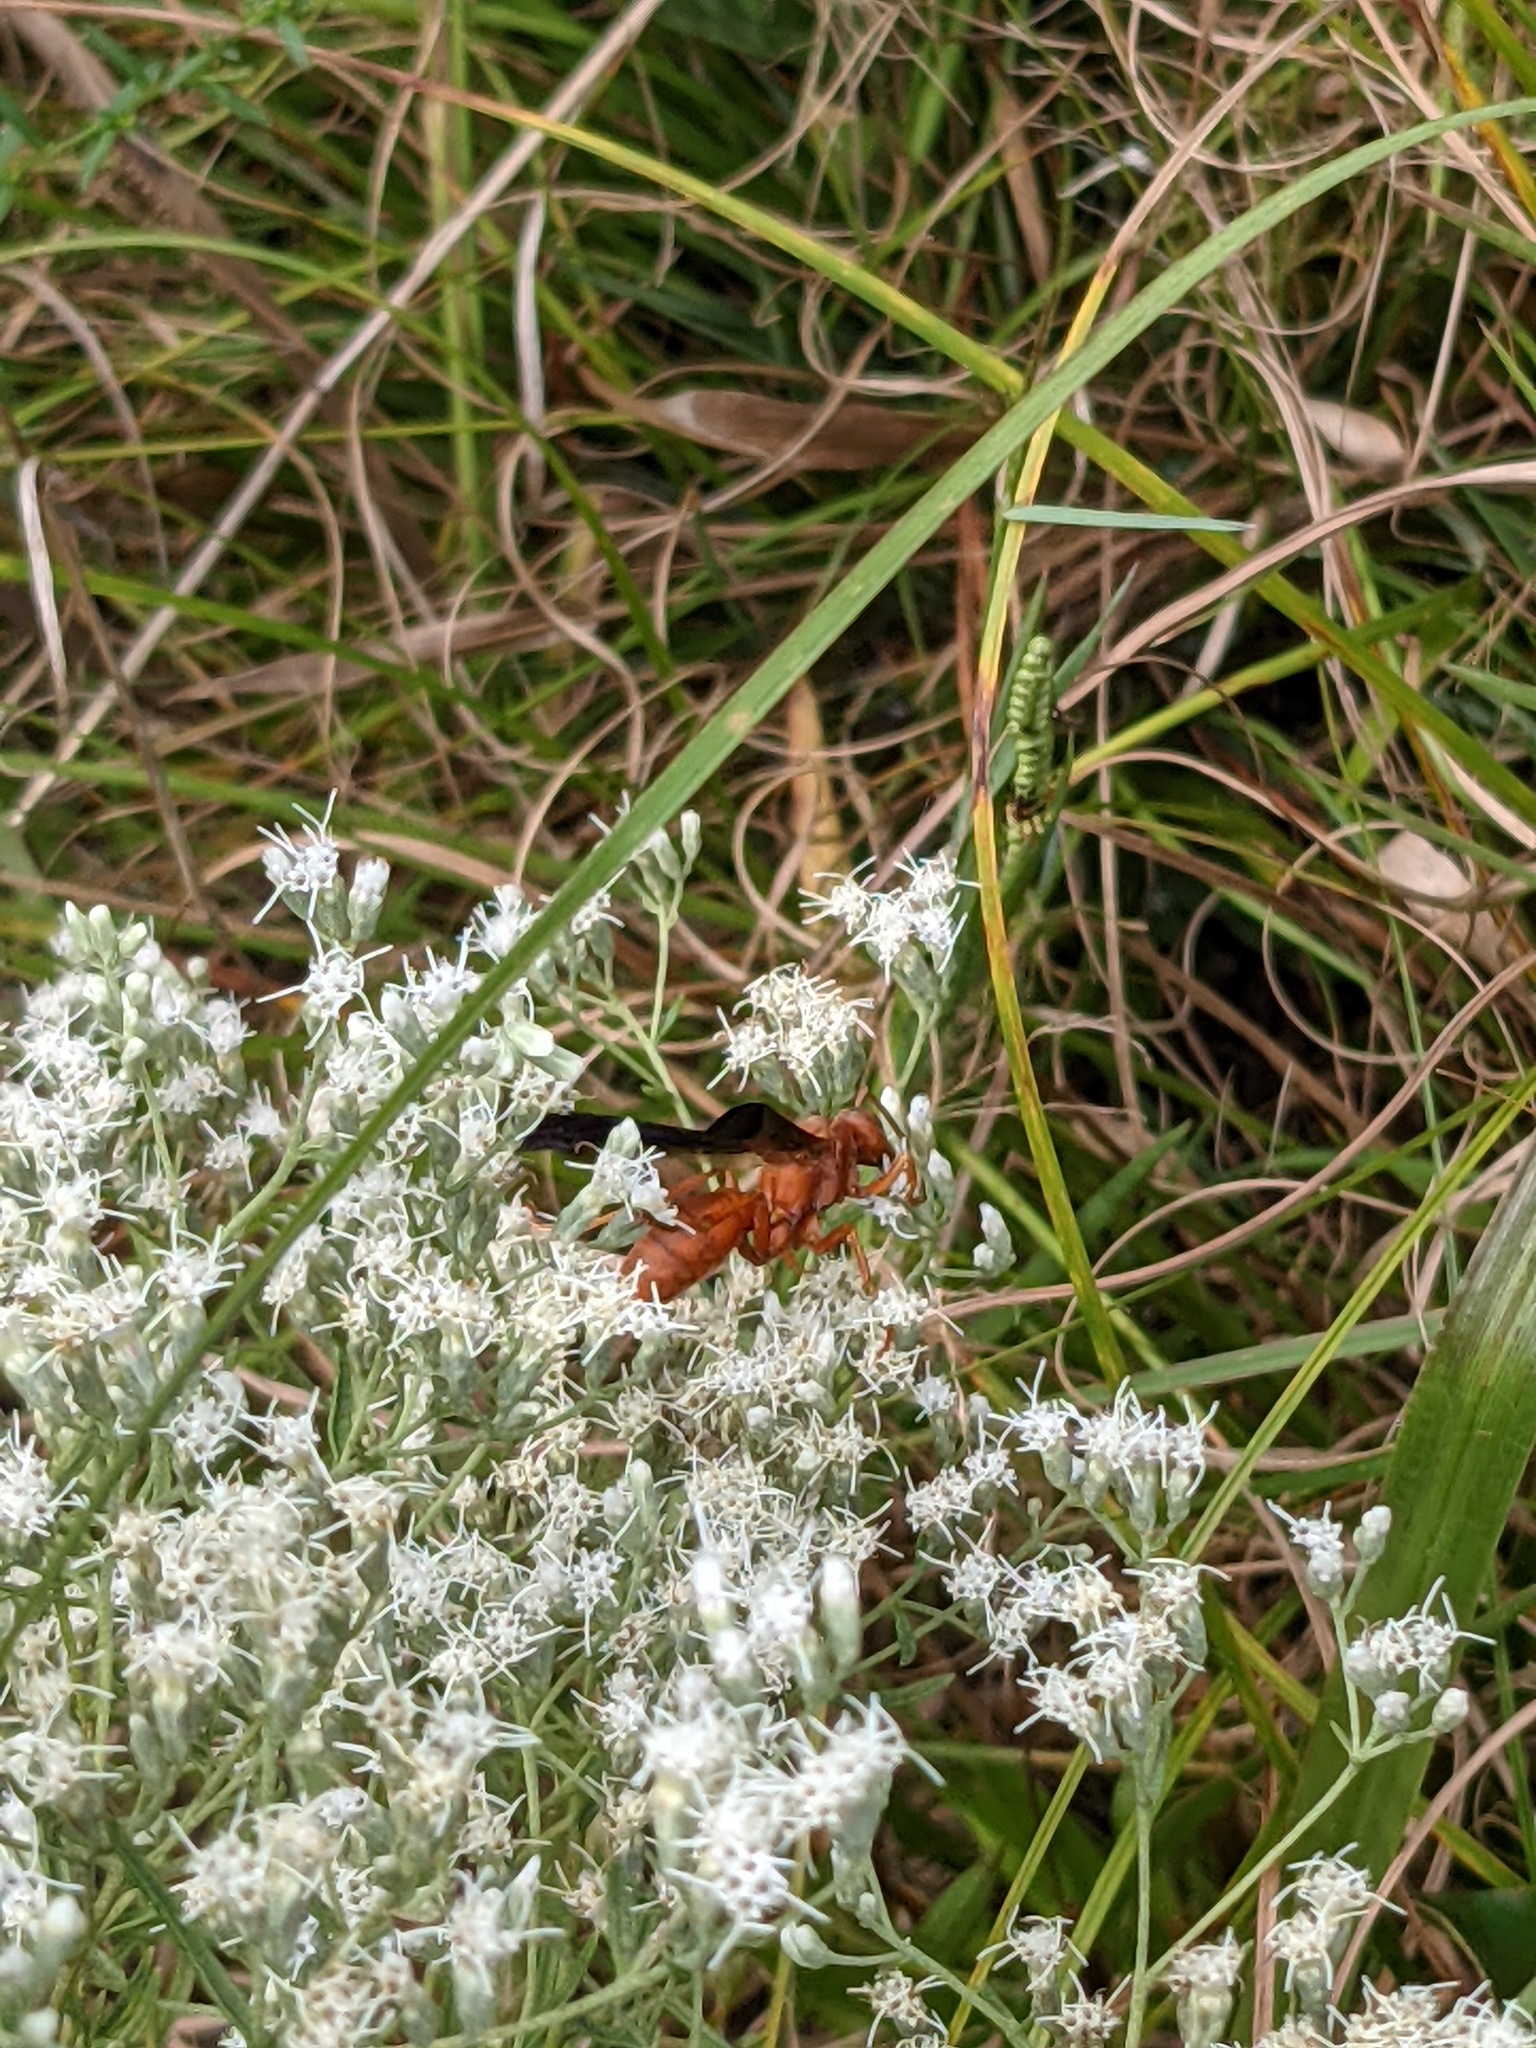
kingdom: Animalia
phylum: Arthropoda
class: Insecta
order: Hymenoptera
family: Vespidae
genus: Fuscopolistes
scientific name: Fuscopolistes
